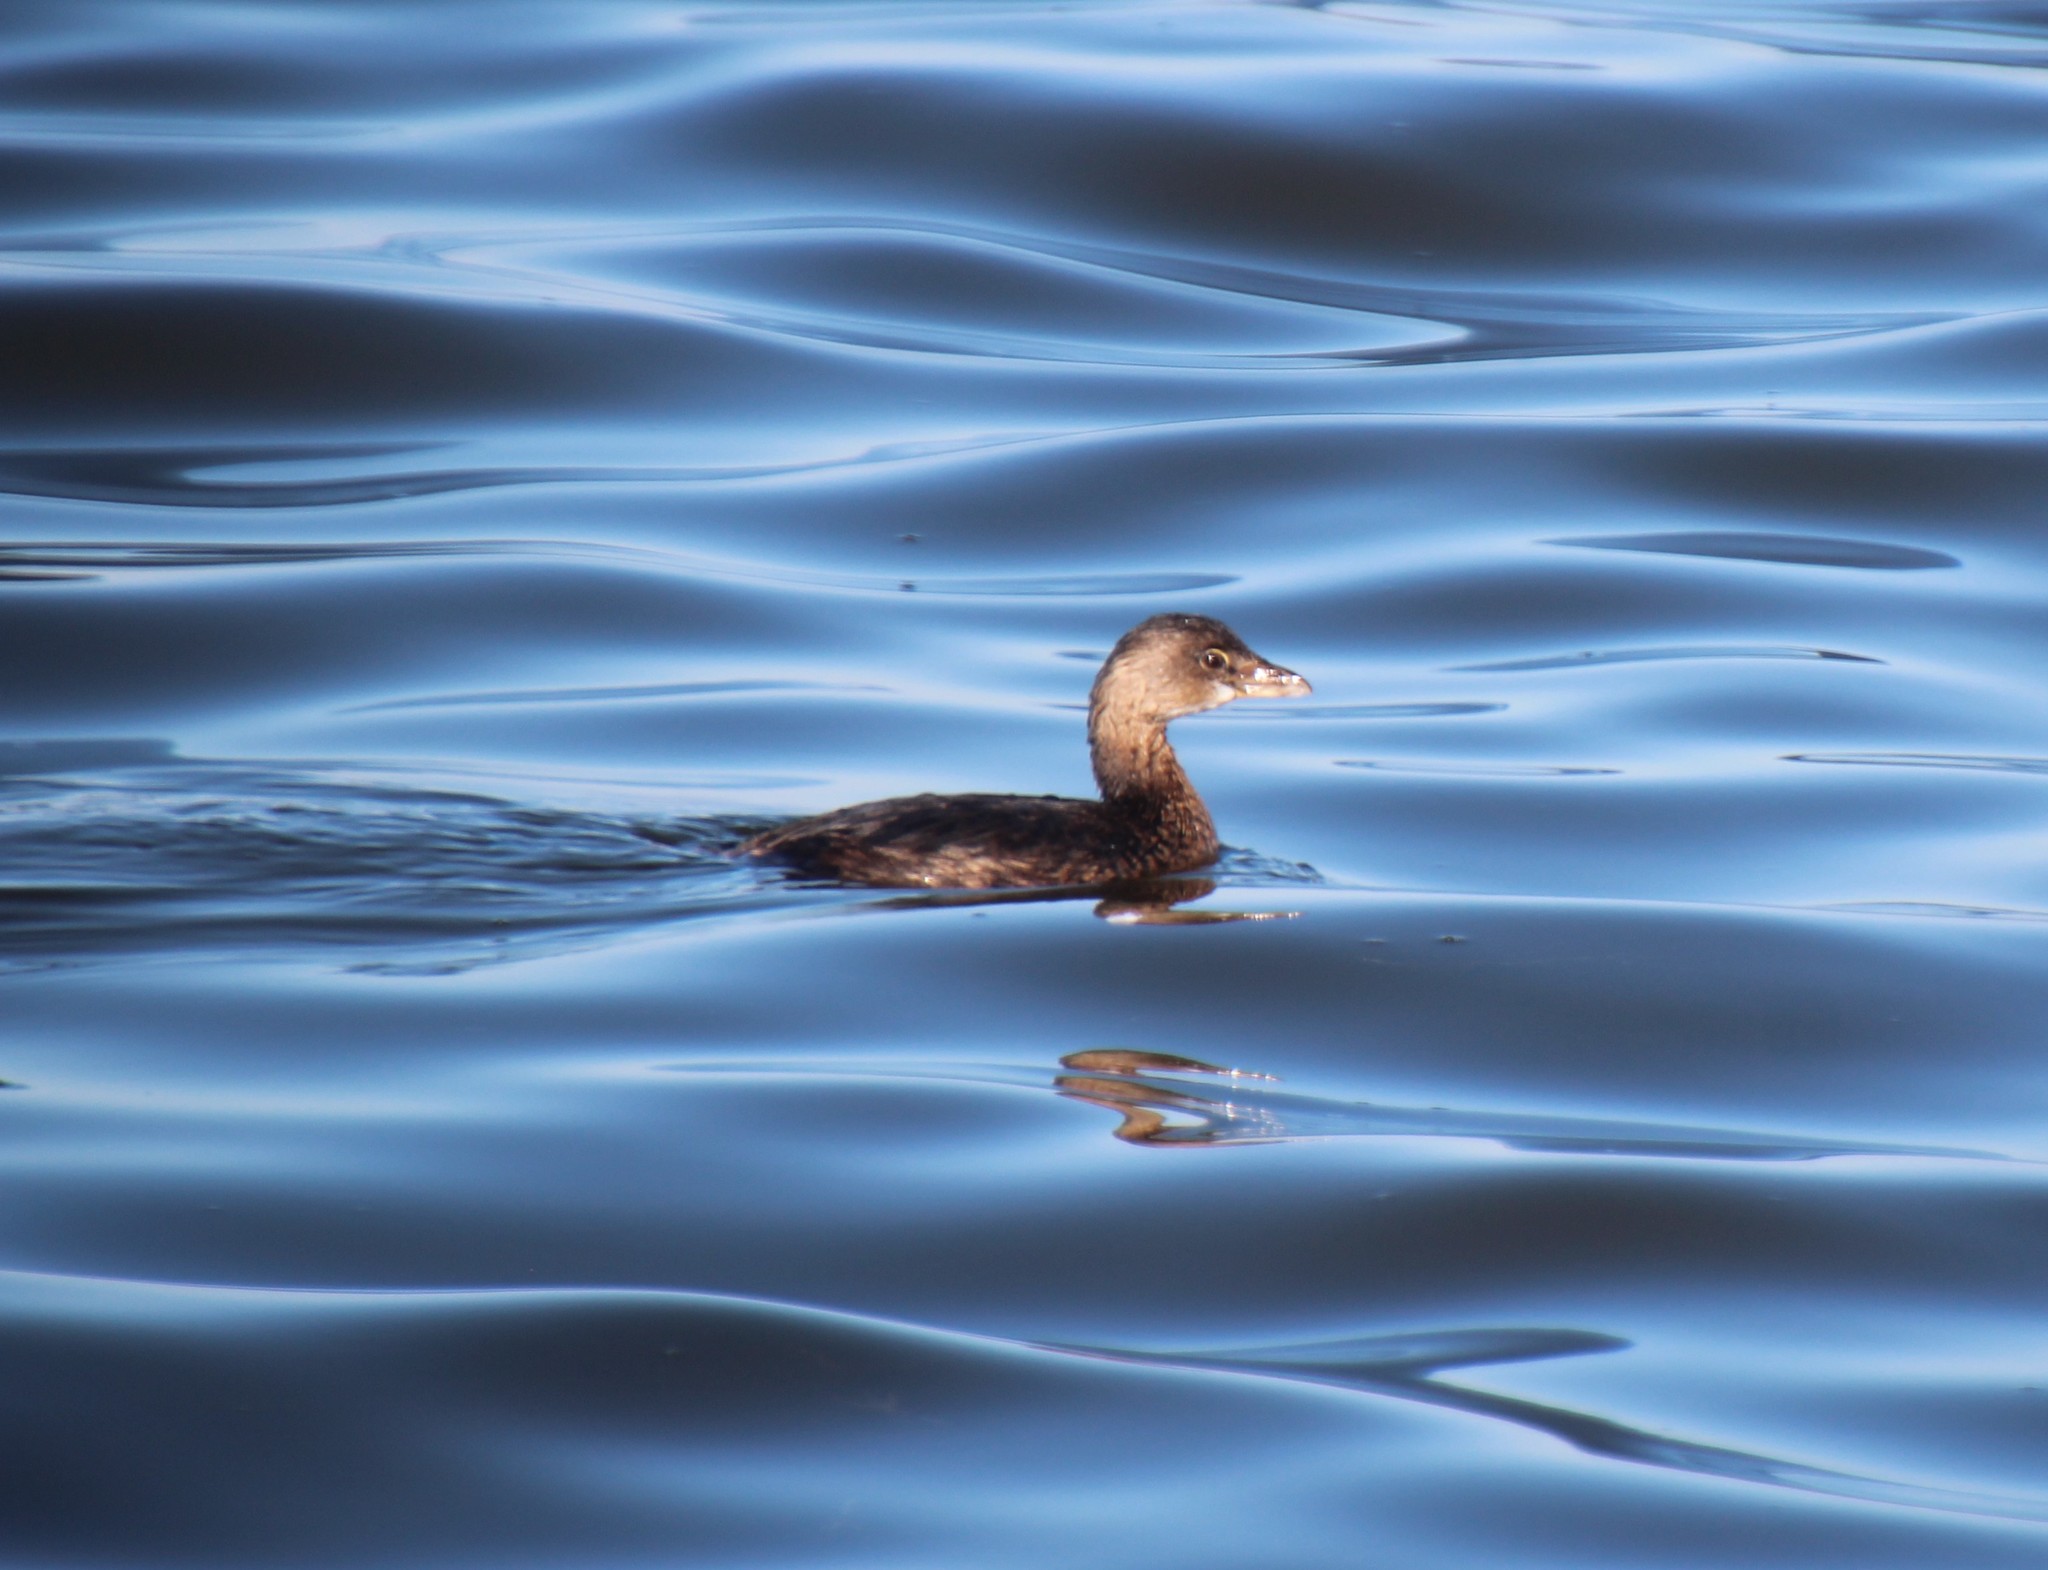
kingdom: Animalia
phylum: Chordata
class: Aves
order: Podicipediformes
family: Podicipedidae
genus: Podilymbus
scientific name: Podilymbus podiceps
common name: Pied-billed grebe
